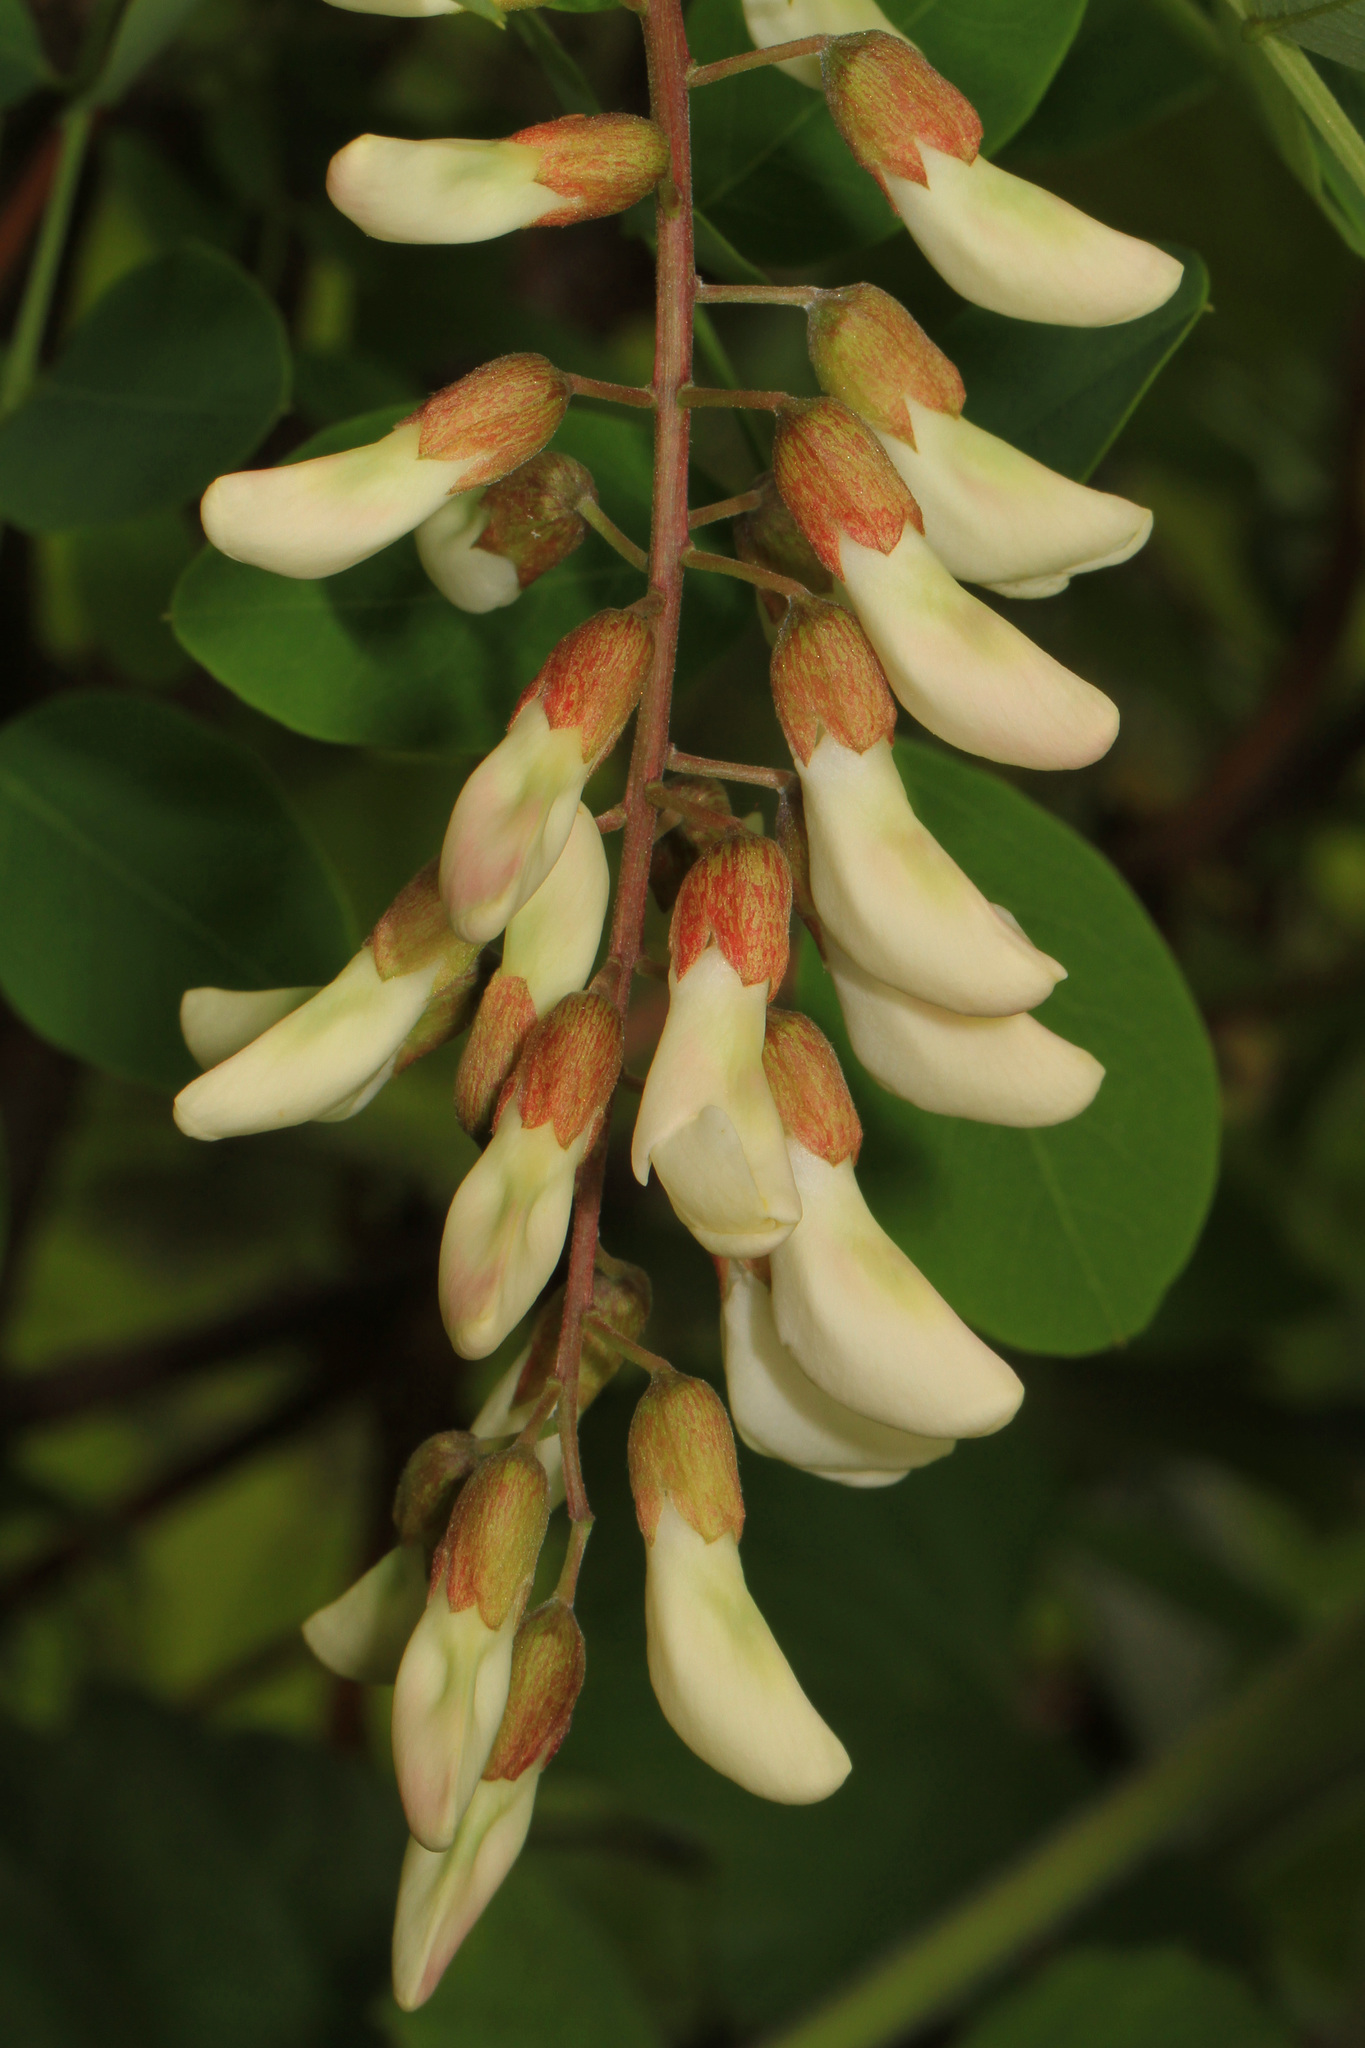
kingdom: Plantae
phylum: Tracheophyta
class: Magnoliopsida
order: Fabales
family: Fabaceae
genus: Robinia
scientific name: Robinia pseudoacacia
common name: Black locust
